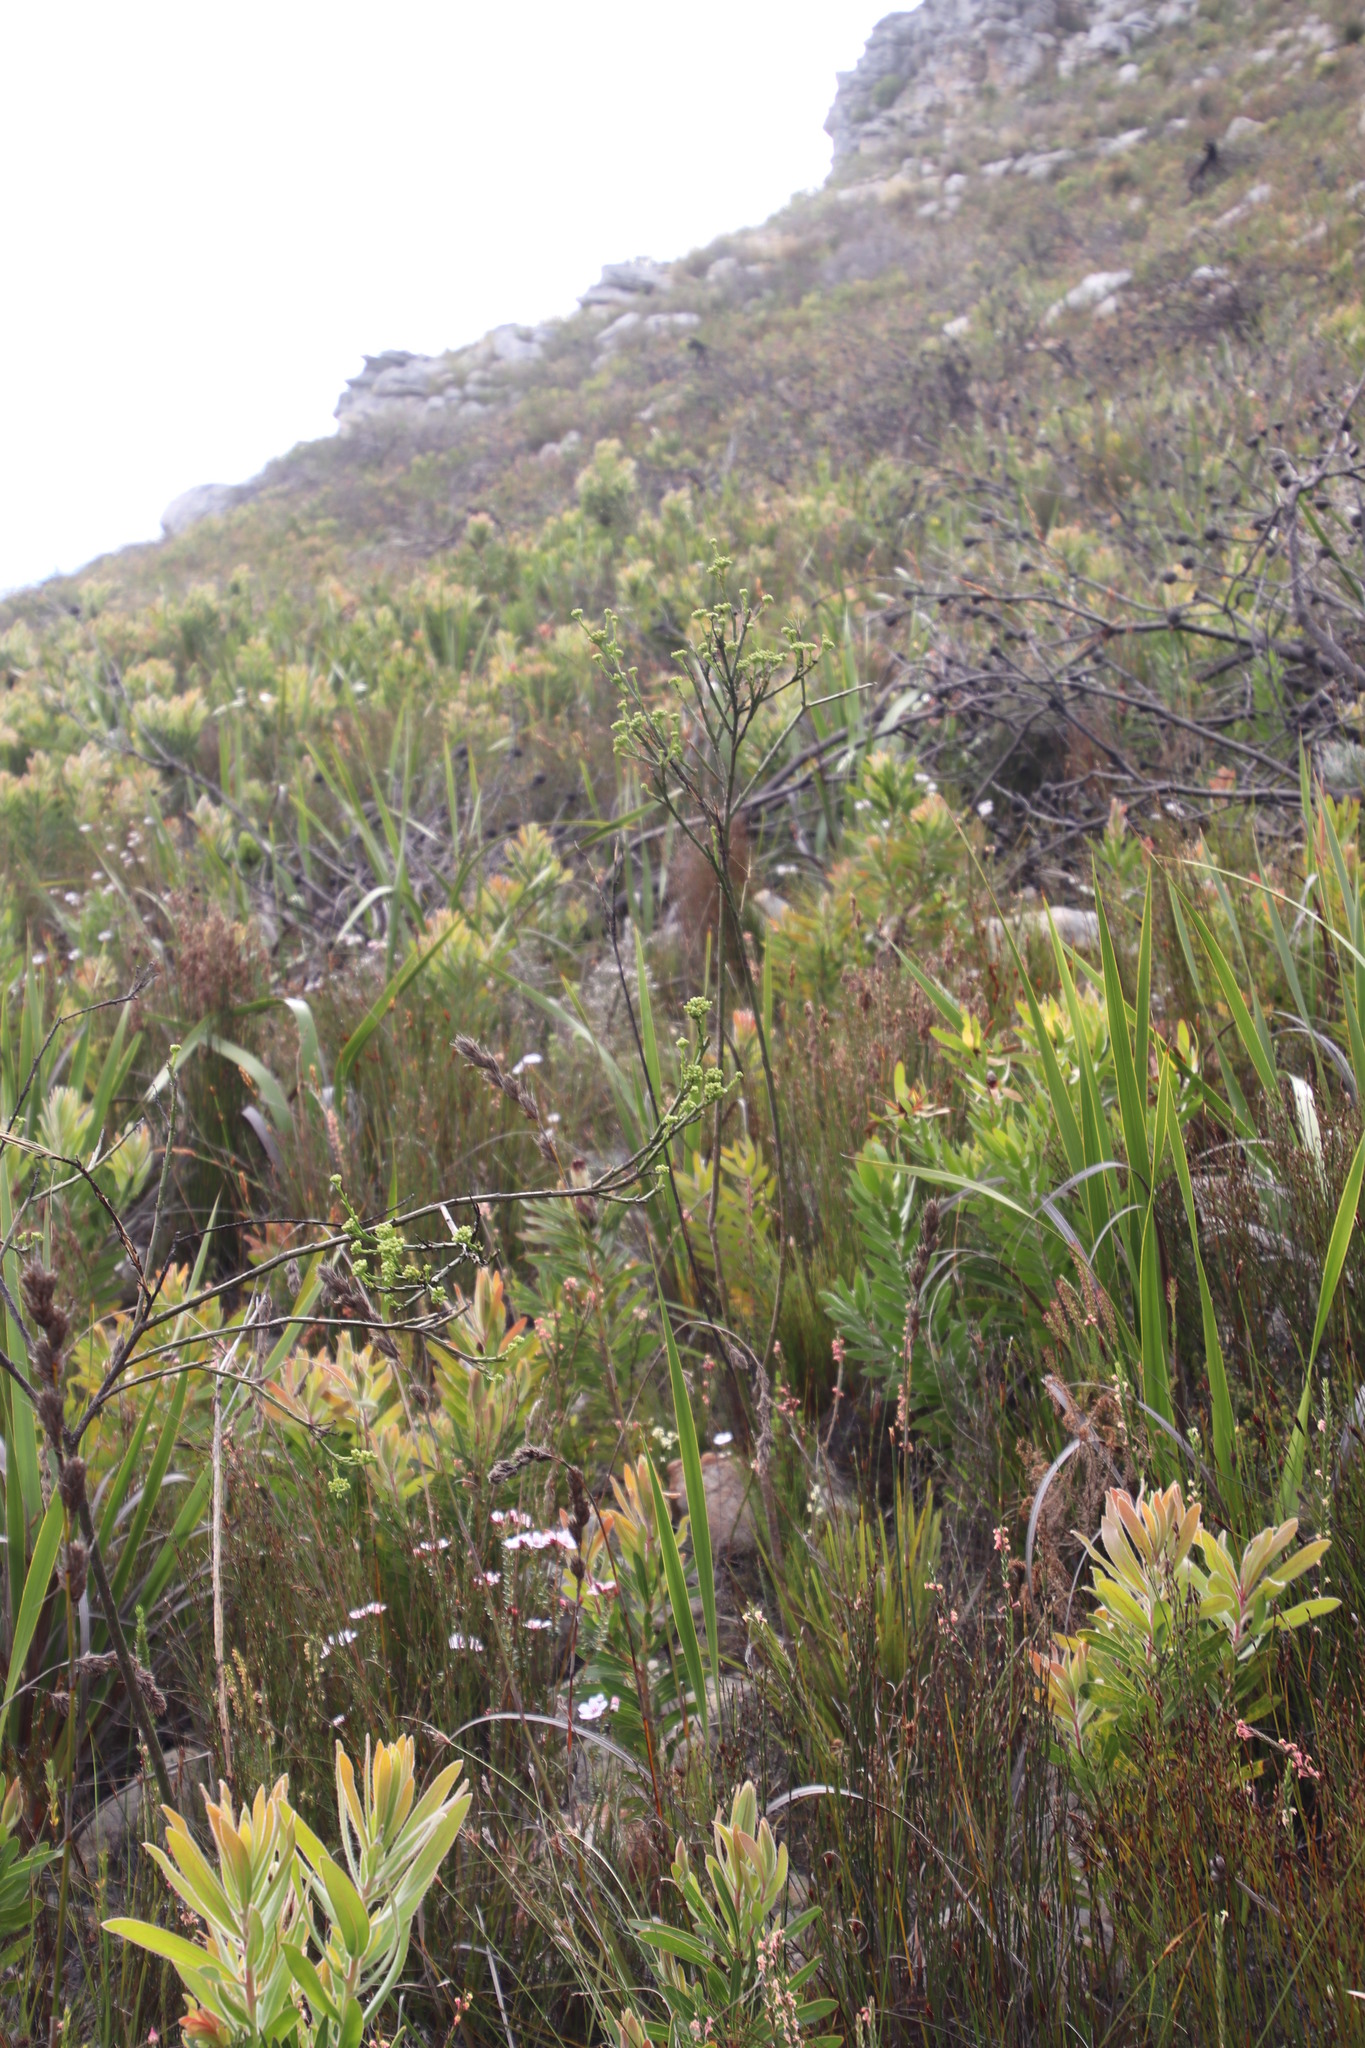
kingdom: Plantae
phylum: Tracheophyta
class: Magnoliopsida
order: Santalales
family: Thesiaceae
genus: Thesium
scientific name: Thesium strictum
